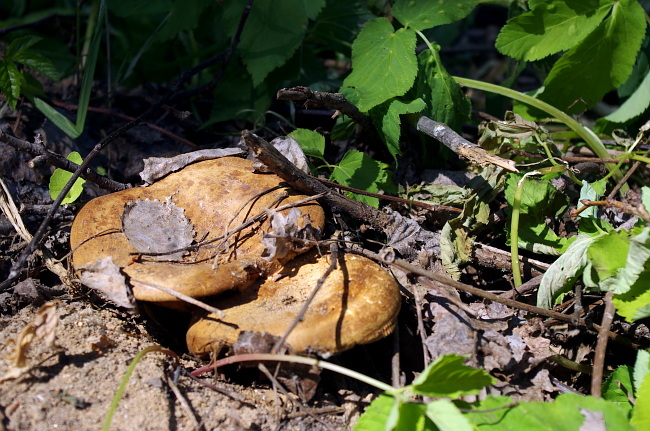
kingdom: Fungi
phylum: Basidiomycota
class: Agaricomycetes
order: Boletales
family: Paxillaceae
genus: Paxillus
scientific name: Paxillus involutus
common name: Brown roll rim
